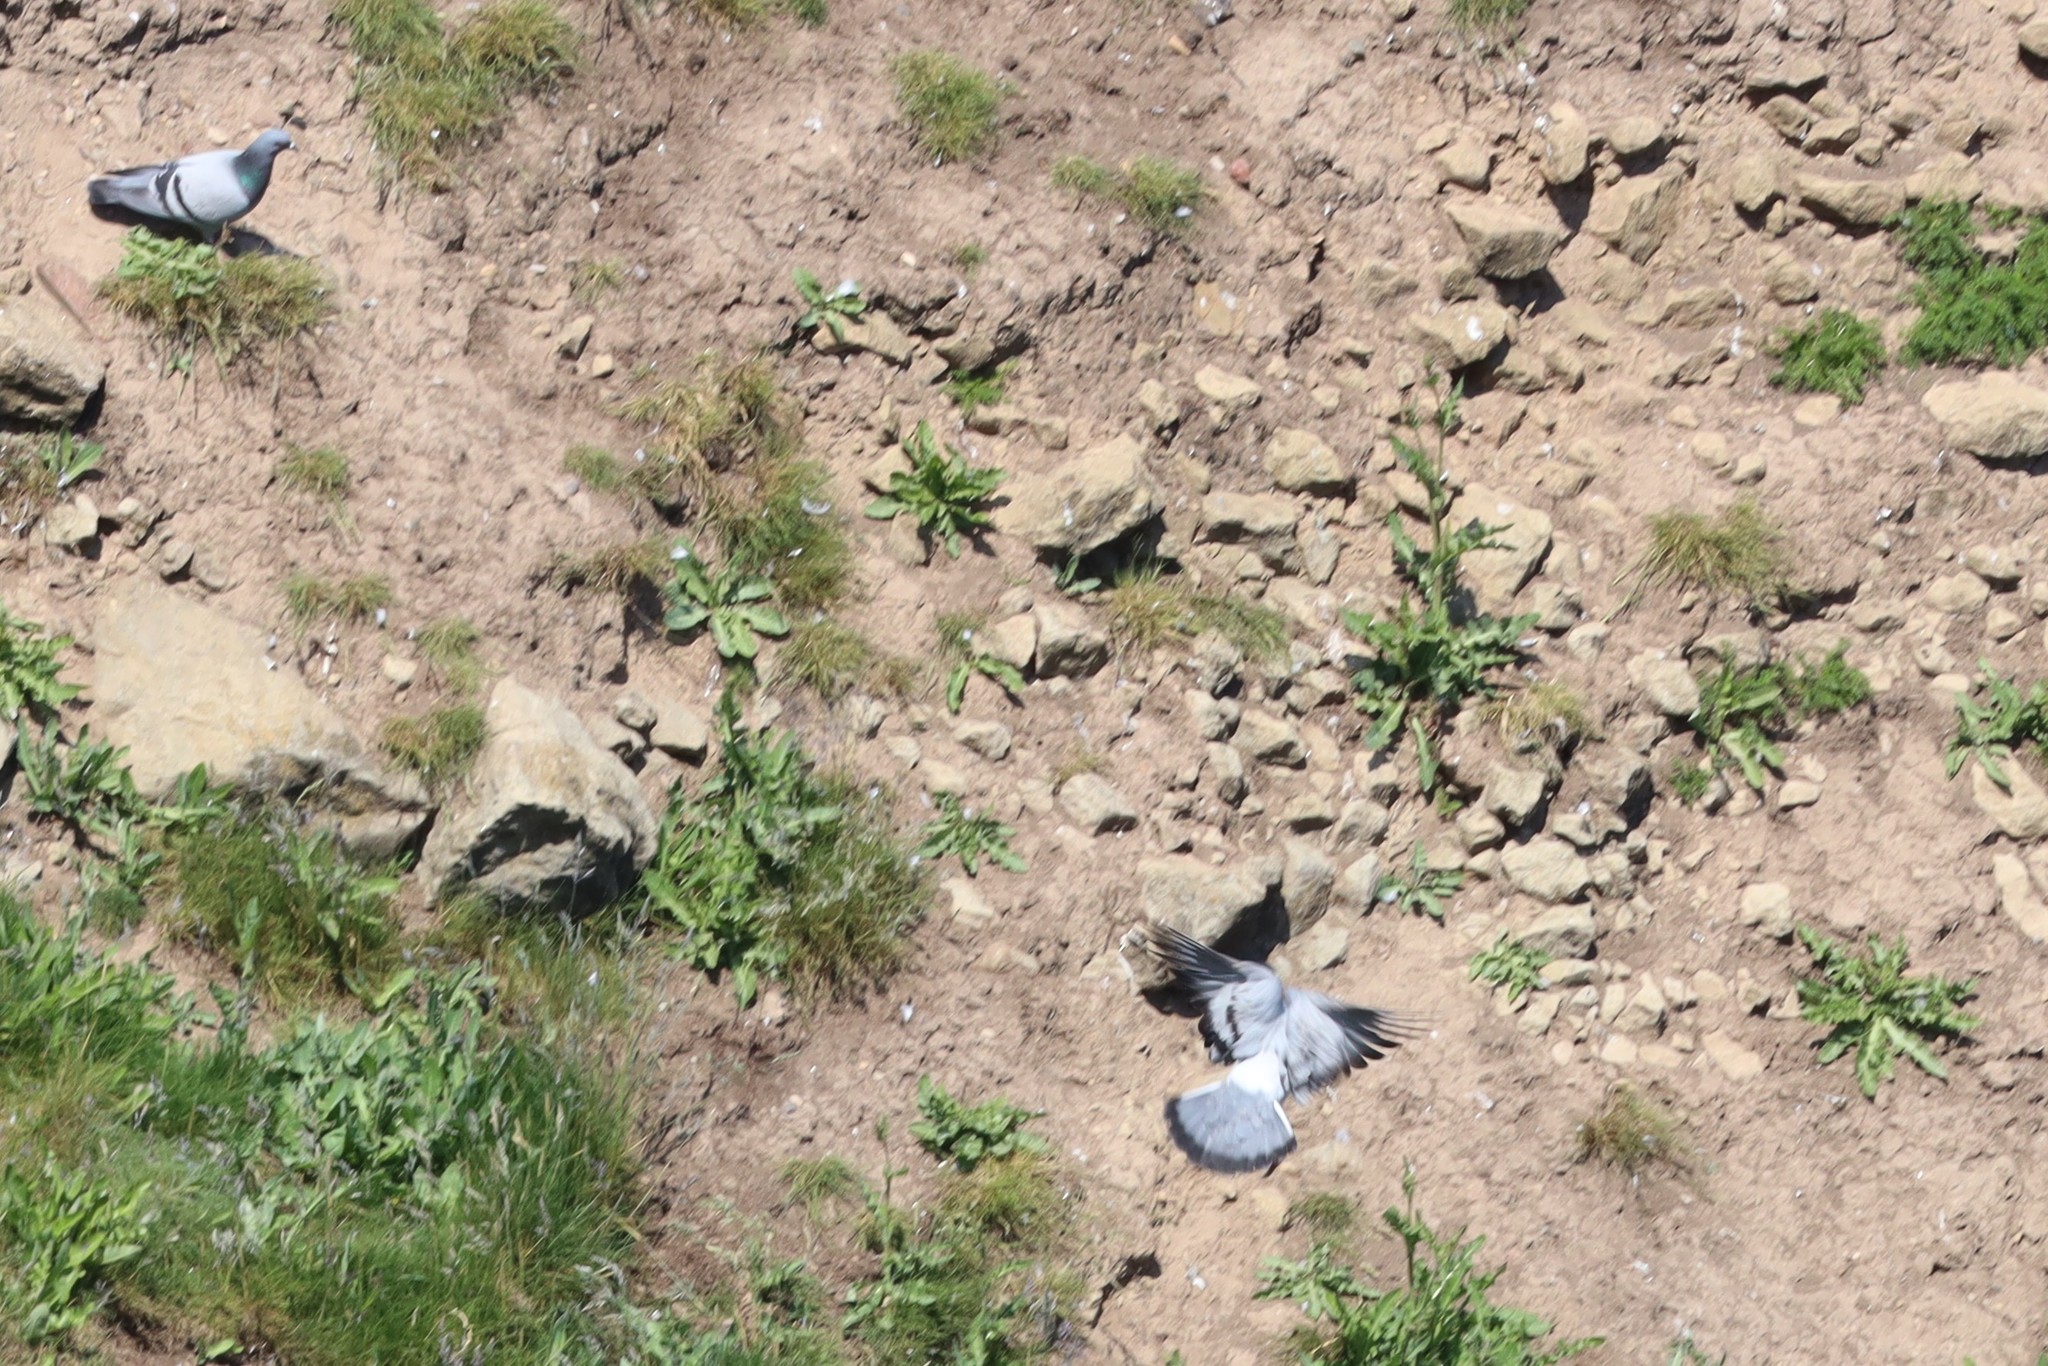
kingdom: Animalia
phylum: Chordata
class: Aves
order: Columbiformes
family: Columbidae
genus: Columba
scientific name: Columba livia
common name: Rock pigeon
